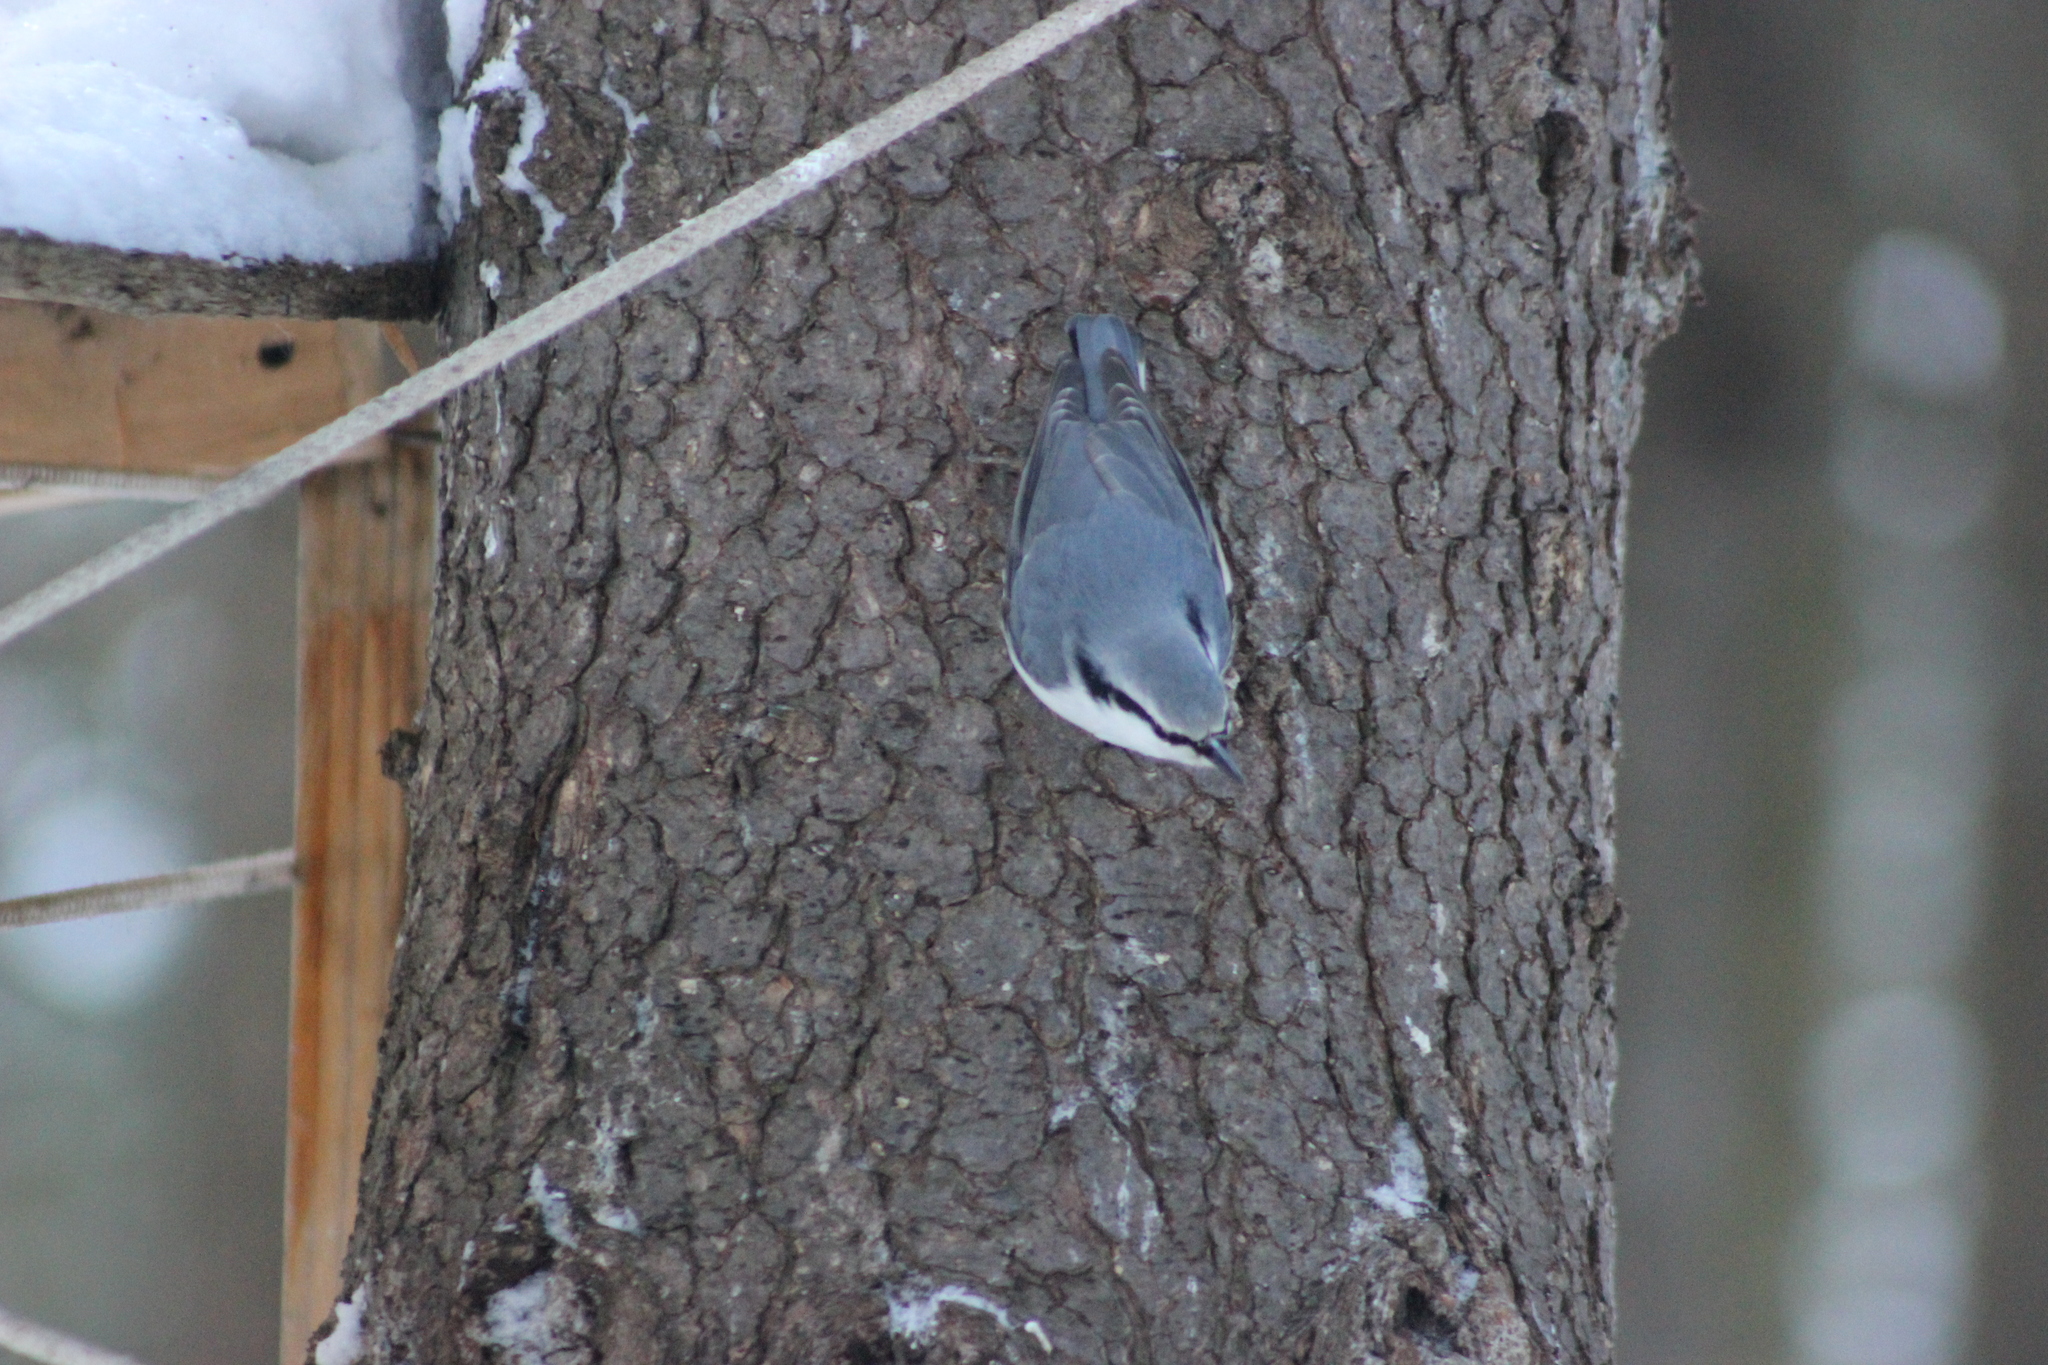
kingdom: Animalia
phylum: Chordata
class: Aves
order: Passeriformes
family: Sittidae
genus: Sitta
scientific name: Sitta europaea
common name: Eurasian nuthatch
